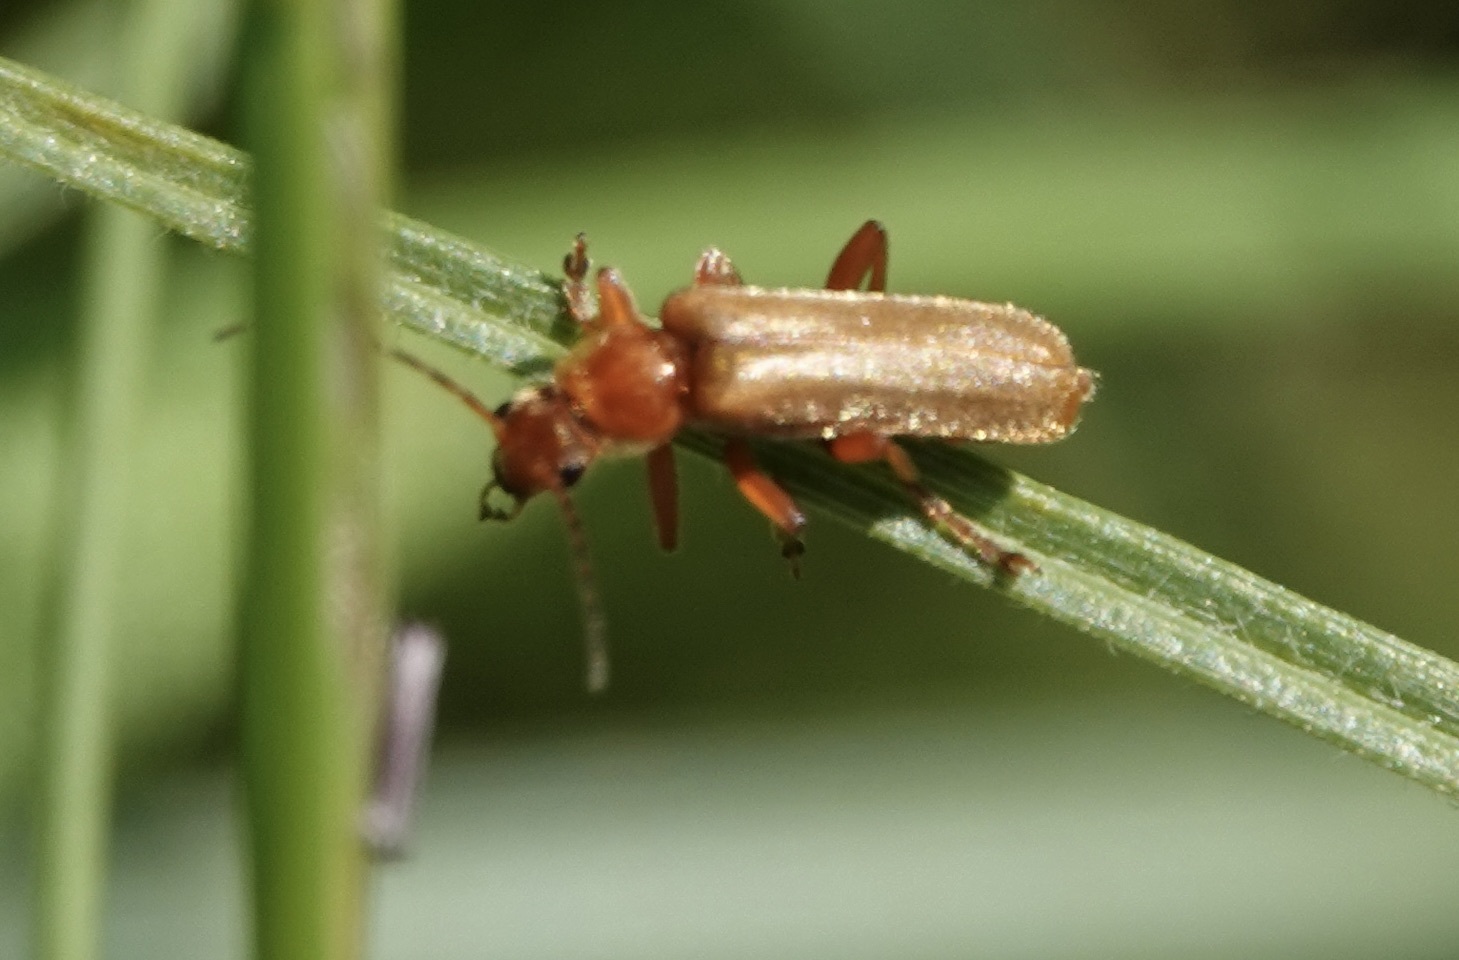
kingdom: Animalia
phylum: Arthropoda
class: Insecta
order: Coleoptera
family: Cantharidae
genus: Cantharis
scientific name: Cantharis rufa
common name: Red-spotted soldier beetle
